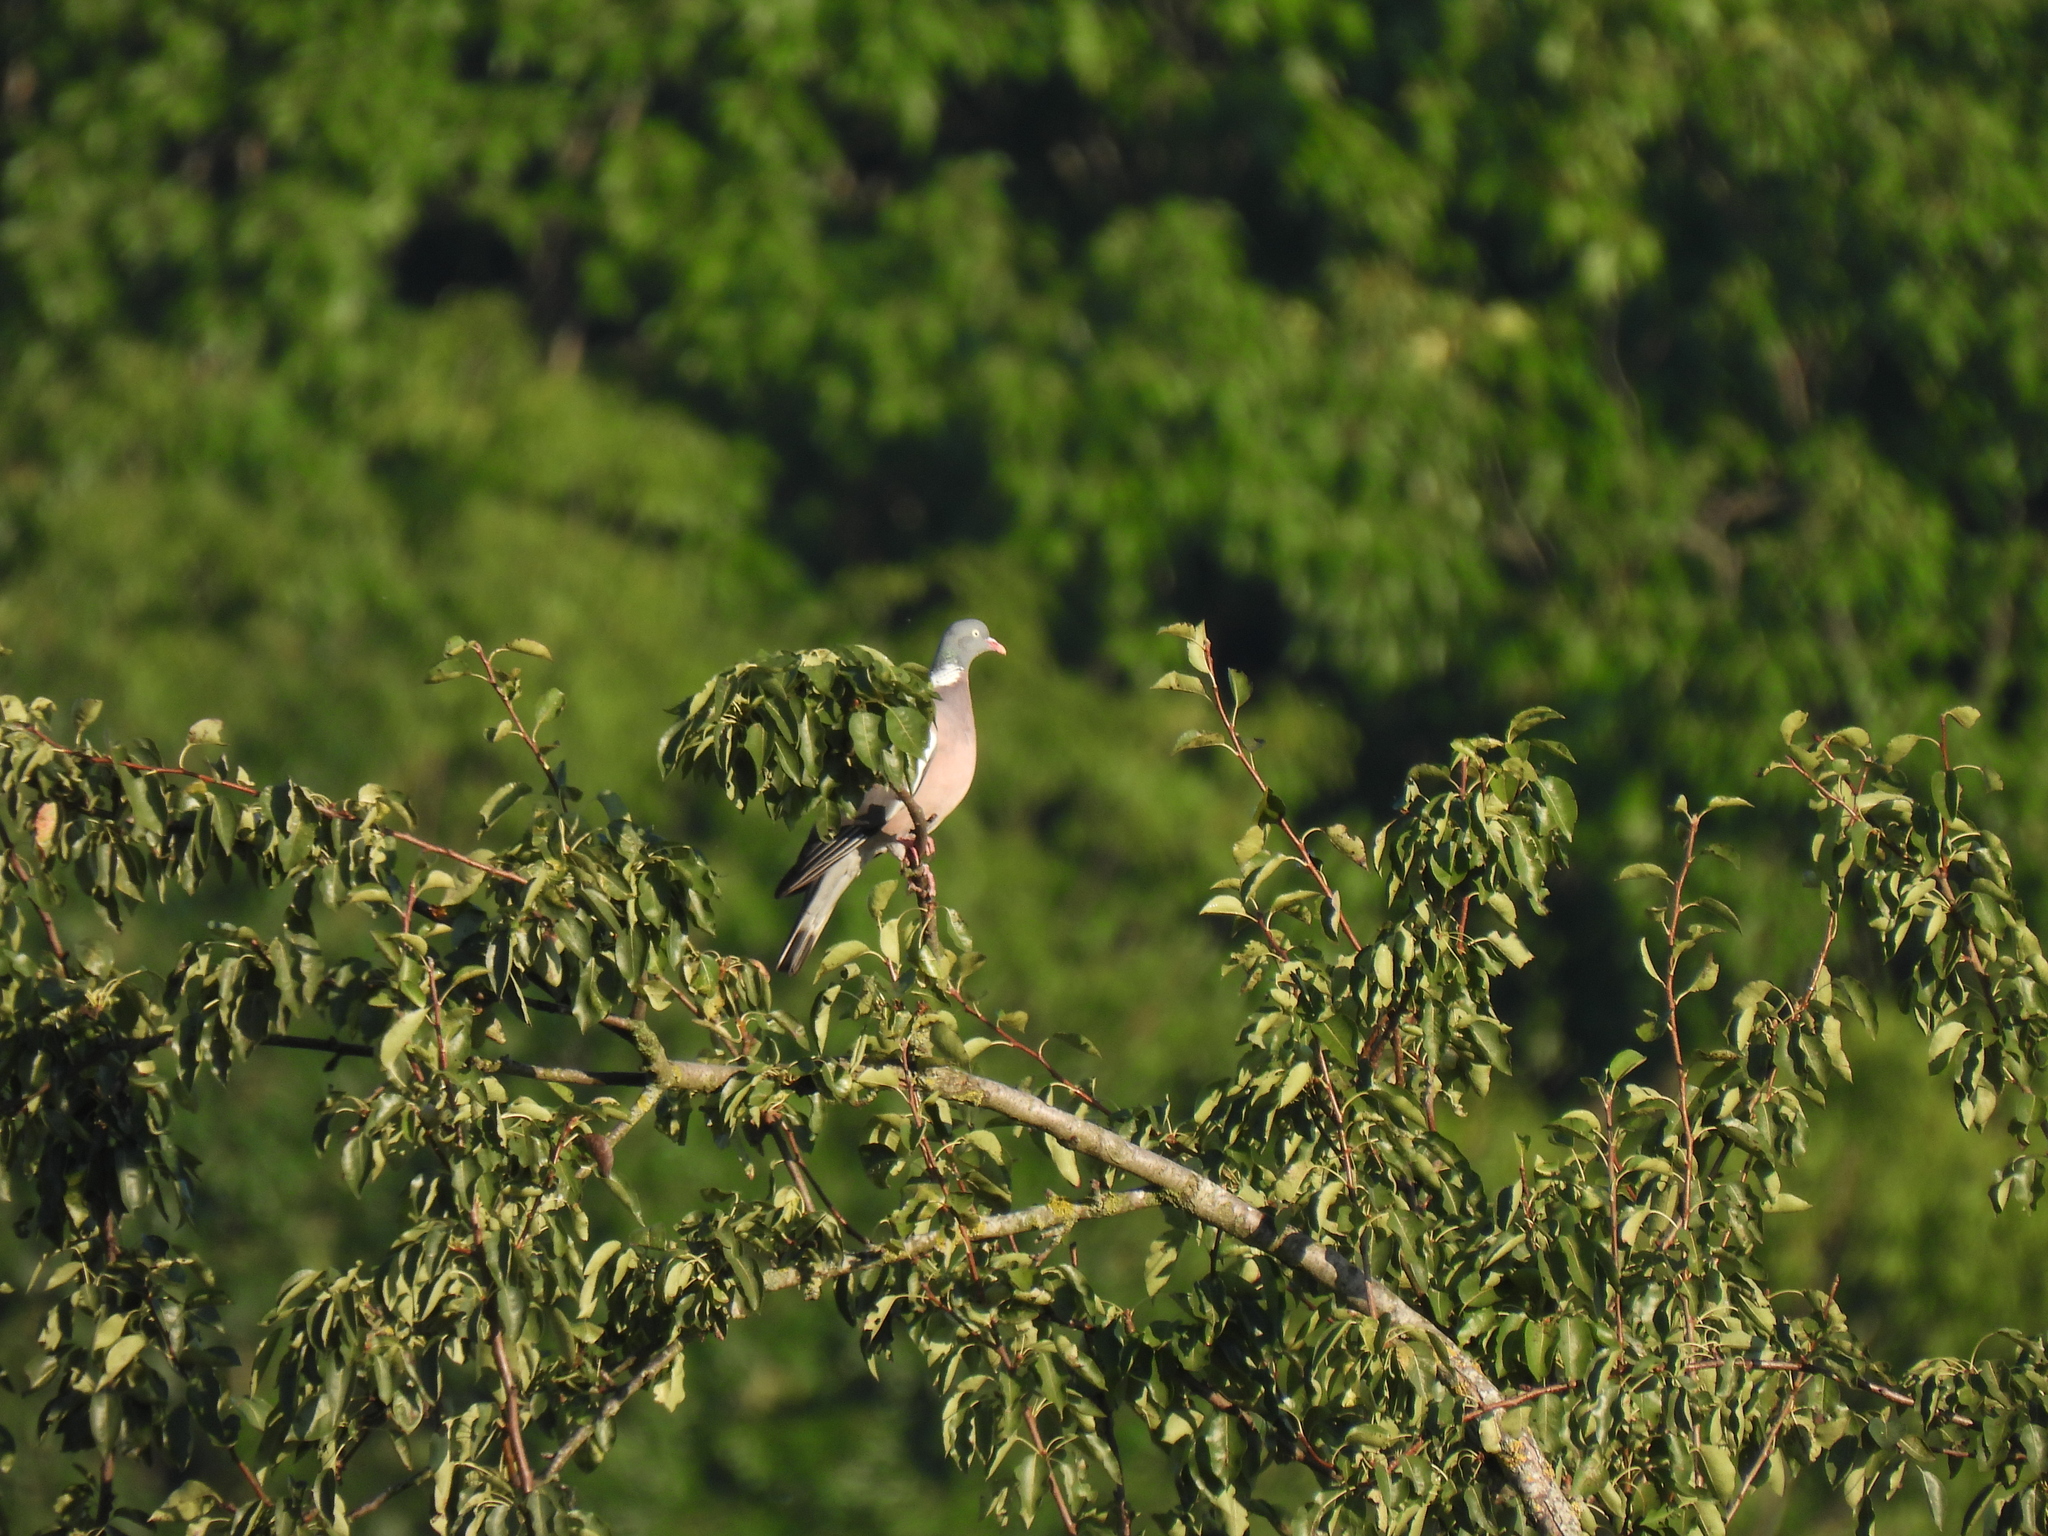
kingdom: Animalia
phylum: Chordata
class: Aves
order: Columbiformes
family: Columbidae
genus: Columba
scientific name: Columba palumbus
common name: Common wood pigeon
